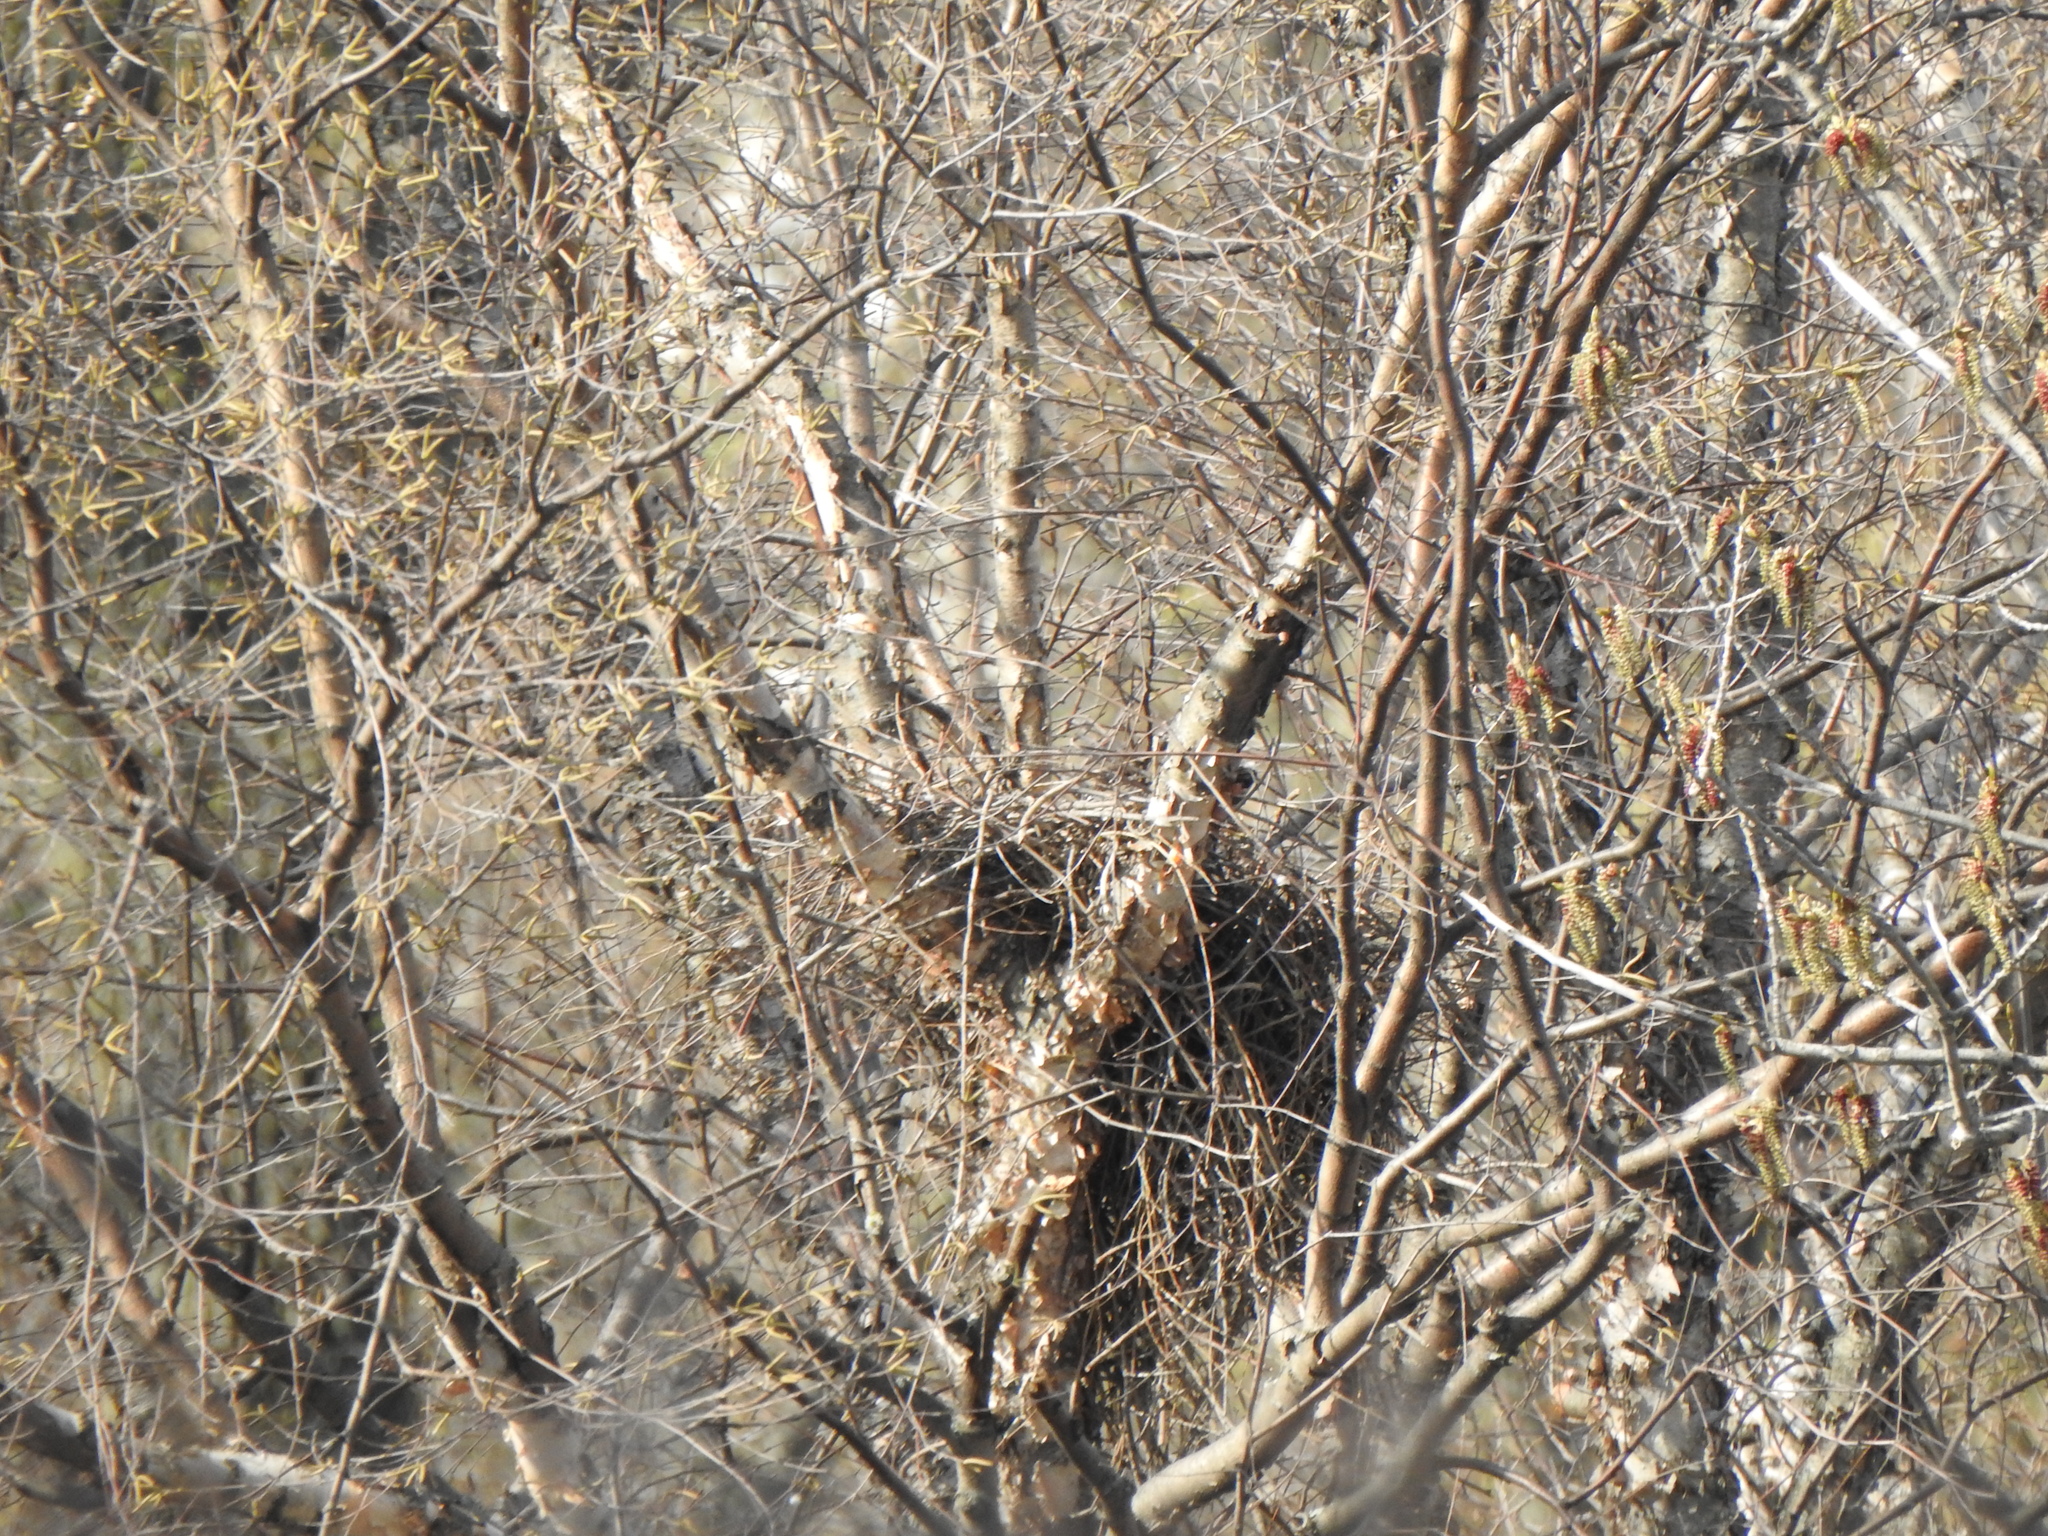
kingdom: Animalia
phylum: Chordata
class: Aves
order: Accipitriformes
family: Accipitridae
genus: Accipiter
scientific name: Accipiter cooperii
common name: Cooper's hawk
